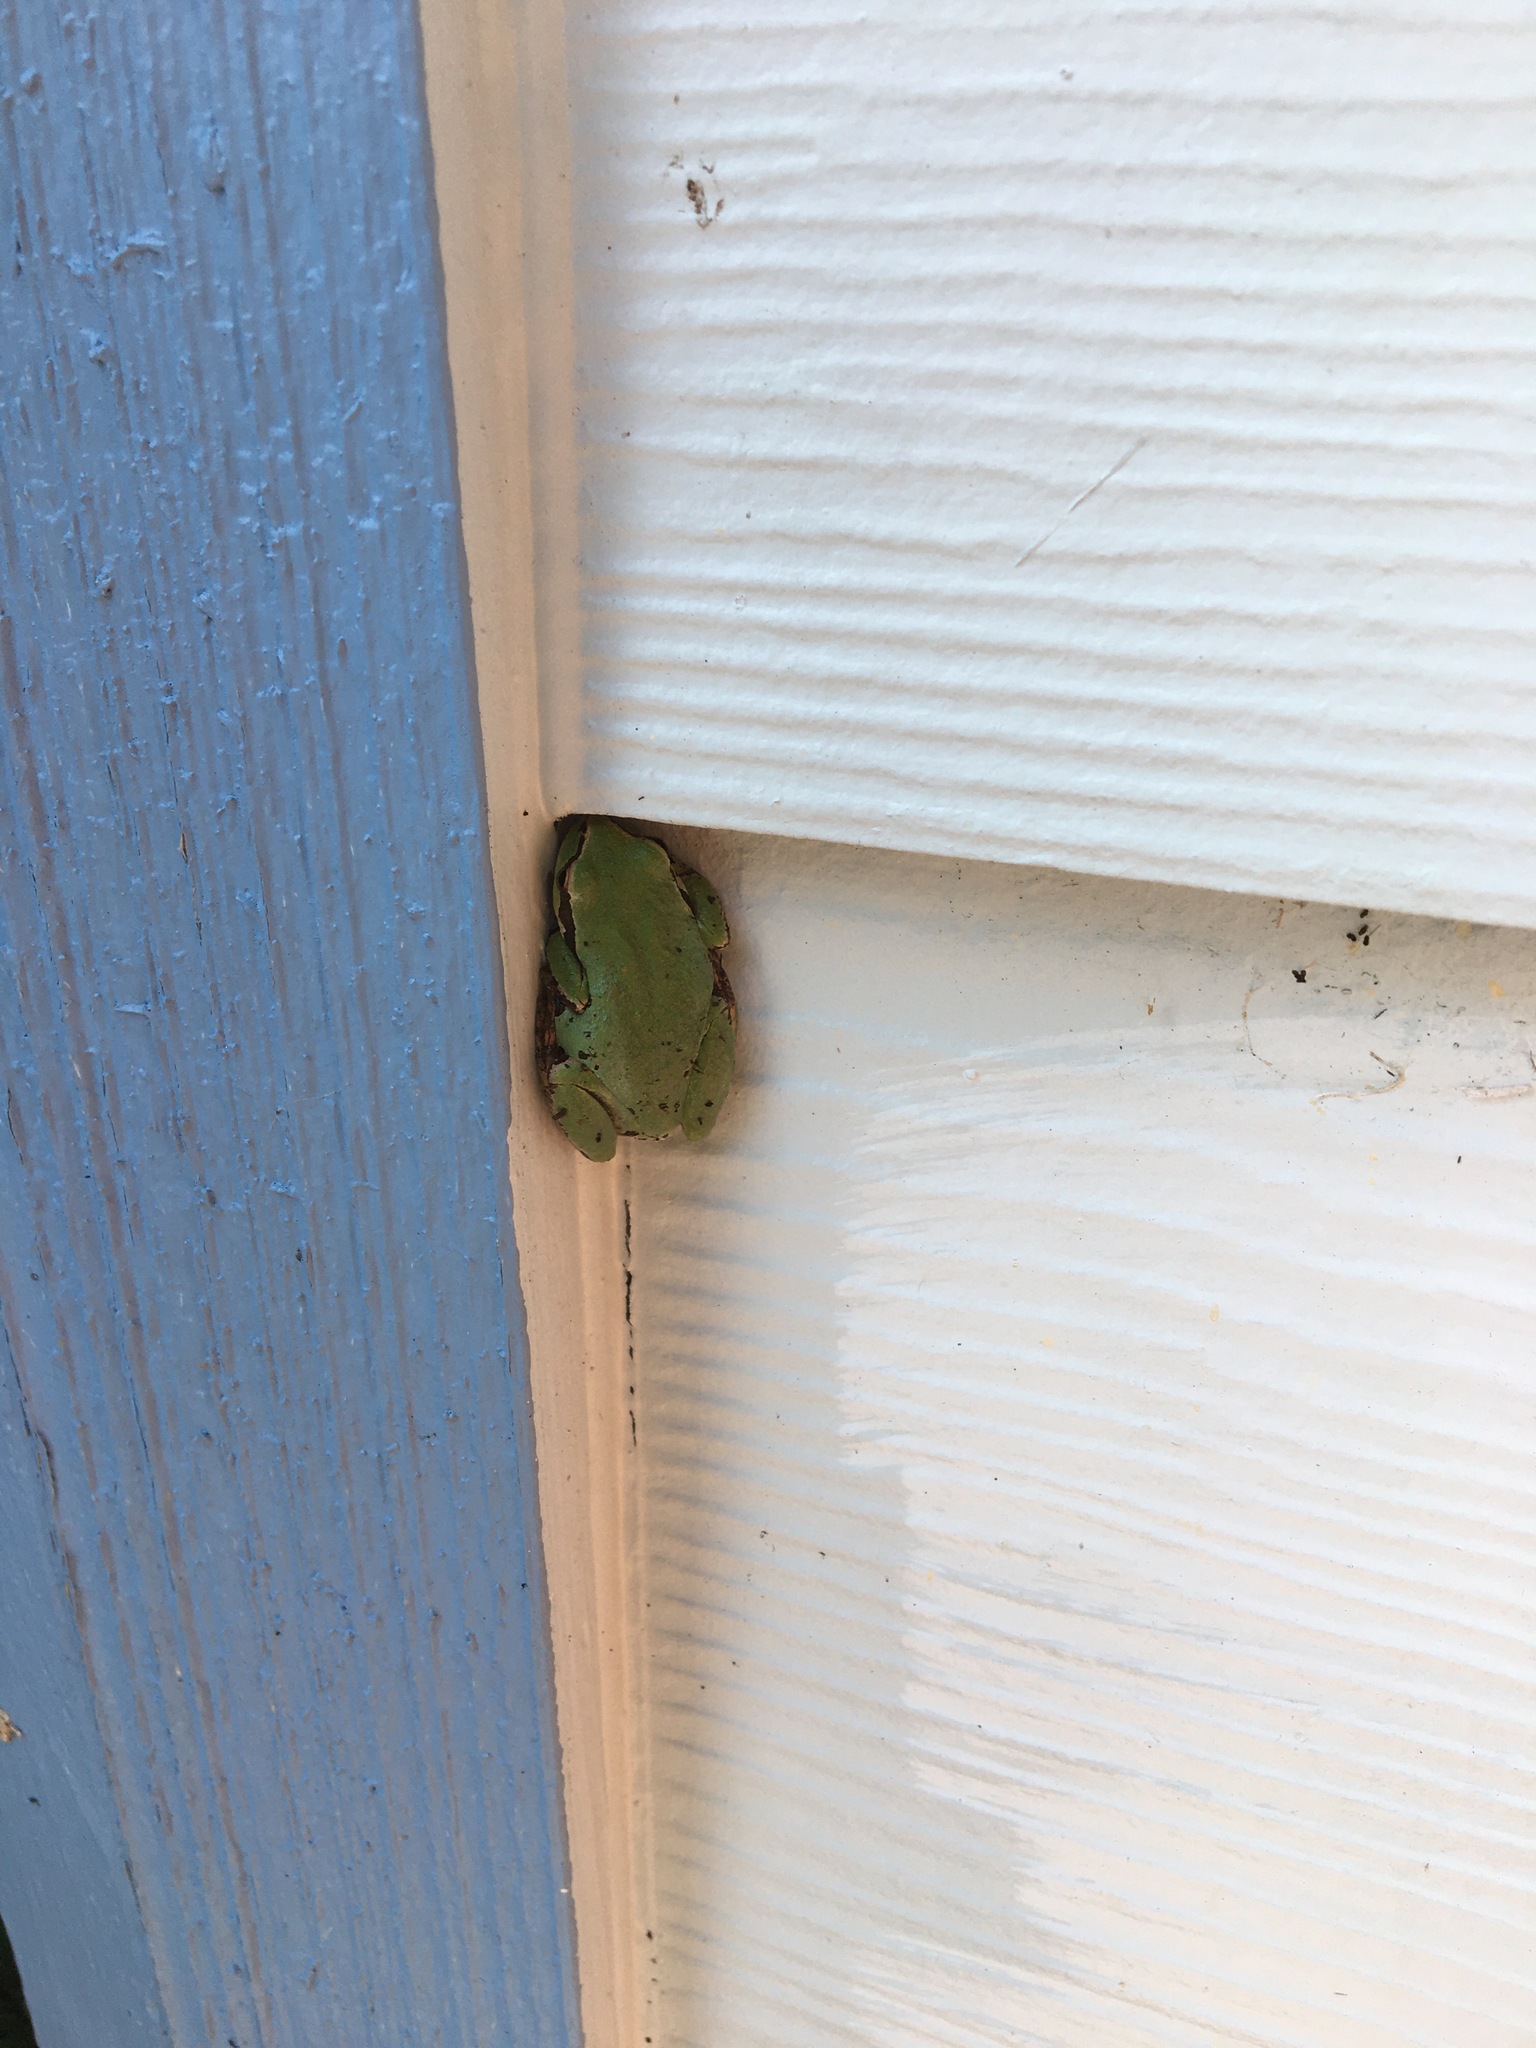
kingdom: Animalia
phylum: Chordata
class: Amphibia
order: Anura
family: Hylidae
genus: Pseudacris
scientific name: Pseudacris regilla
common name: Pacific chorus frog
